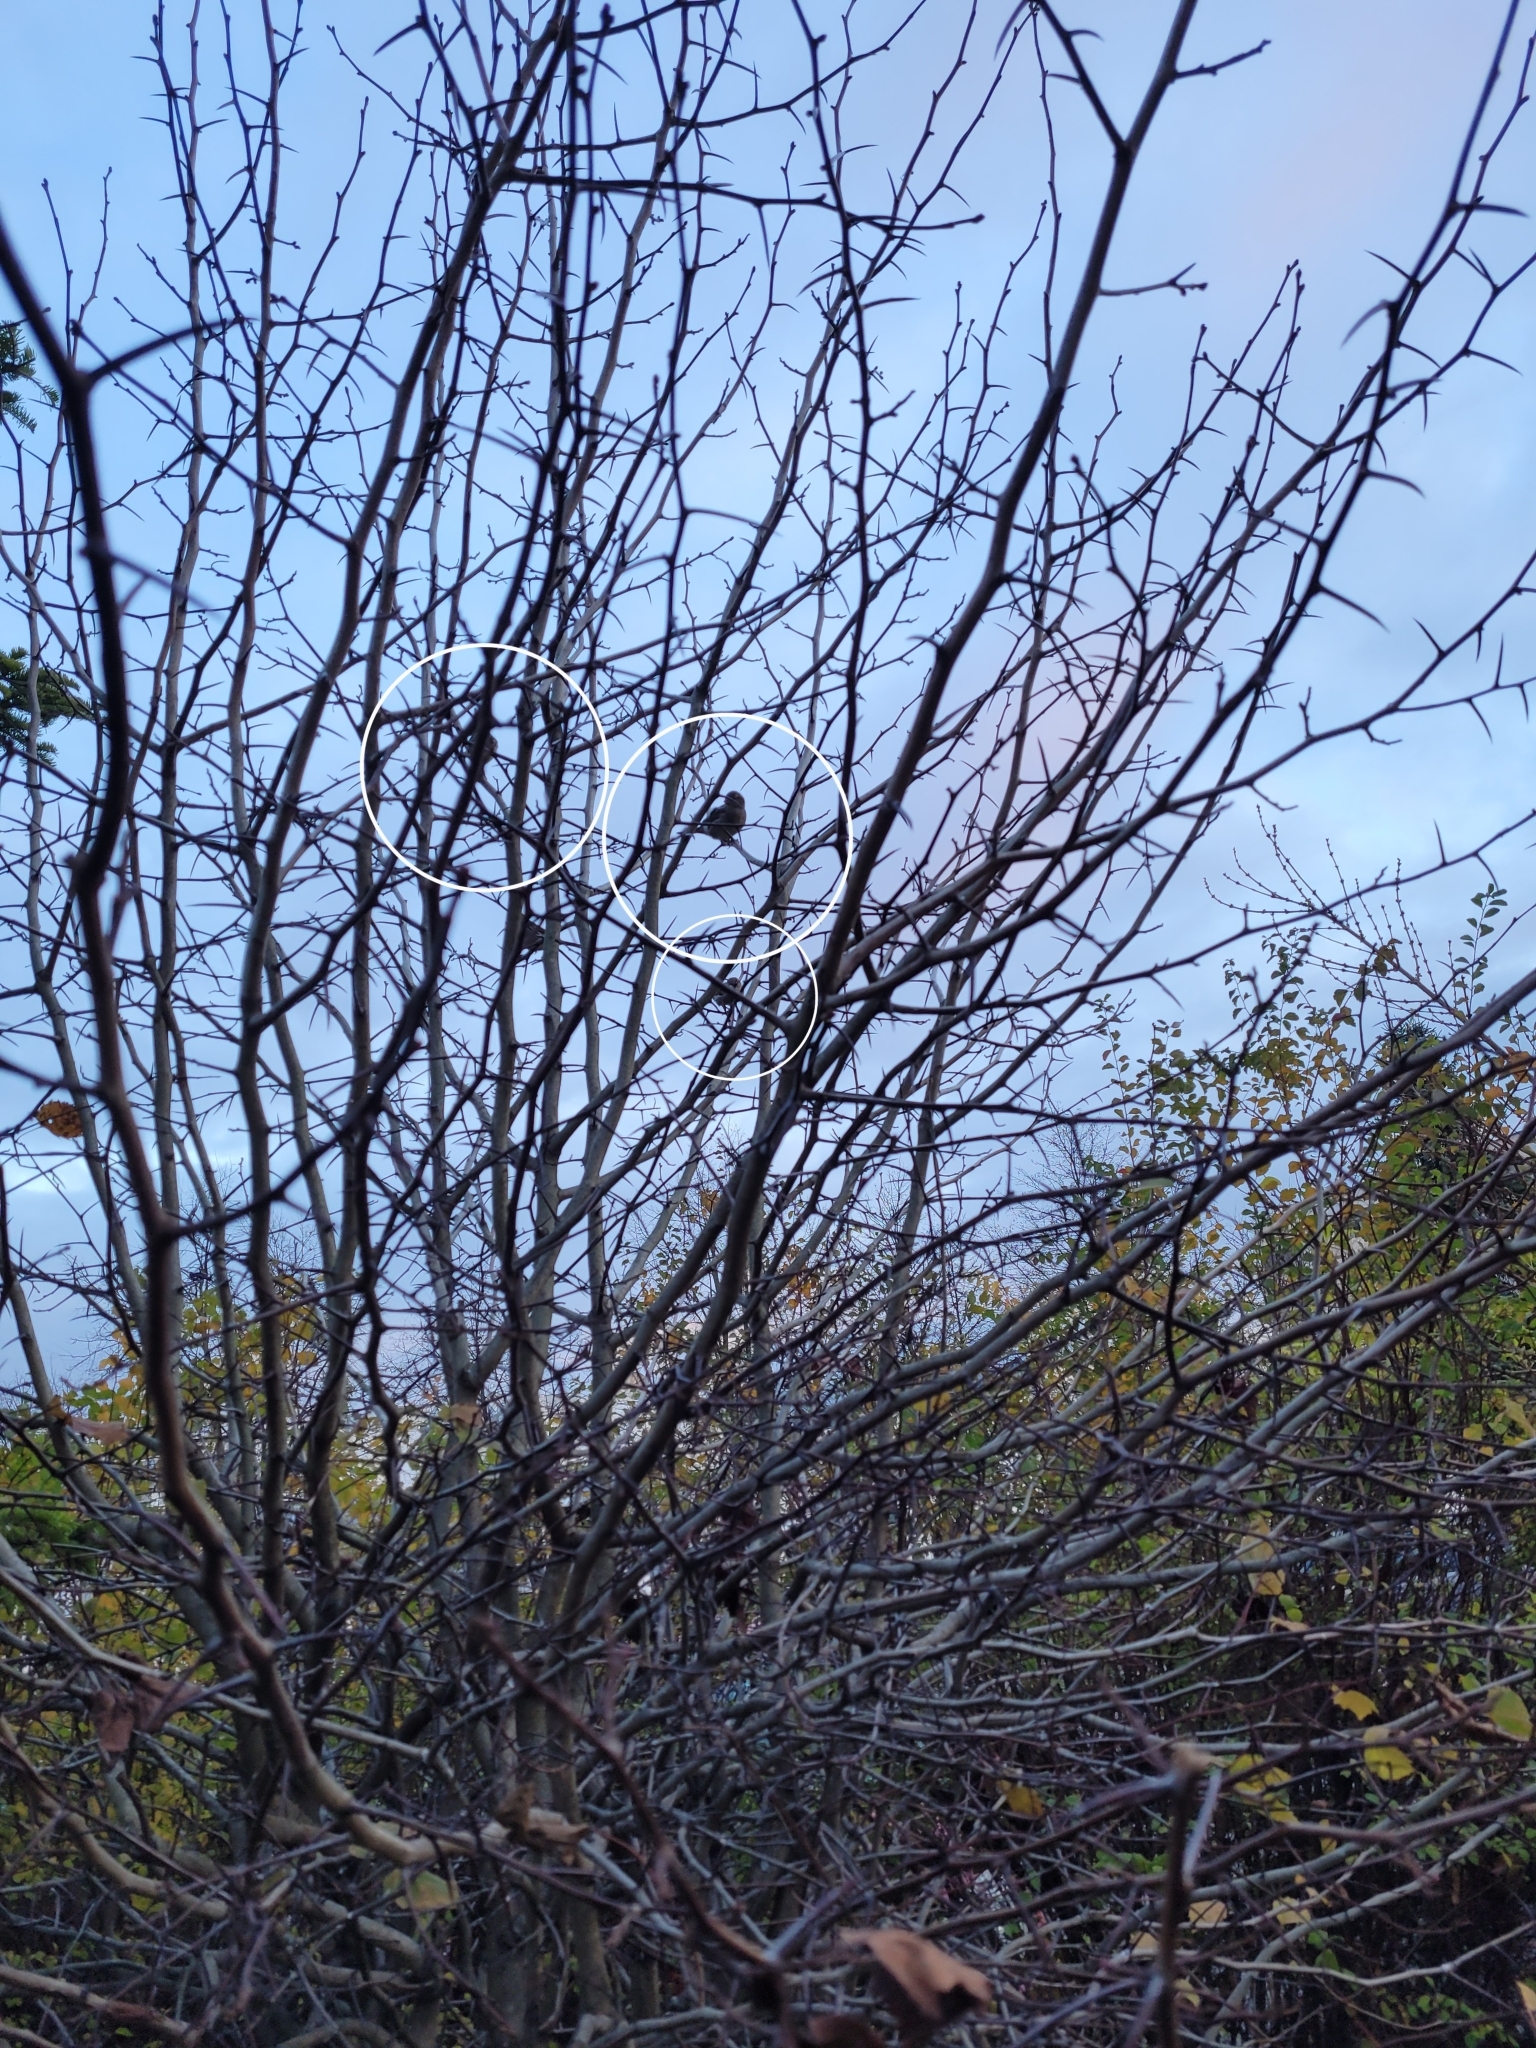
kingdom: Animalia
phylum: Chordata
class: Aves
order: Passeriformes
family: Passeridae
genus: Passer
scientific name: Passer domesticus
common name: House sparrow
